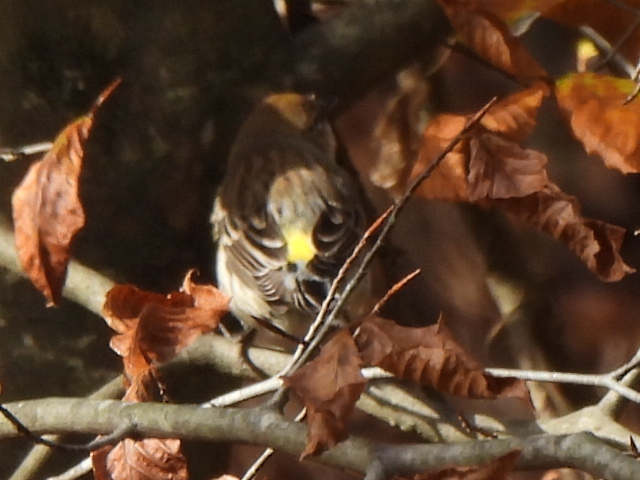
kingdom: Animalia
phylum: Chordata
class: Aves
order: Passeriformes
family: Parulidae
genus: Setophaga
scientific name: Setophaga coronata
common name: Myrtle warbler
